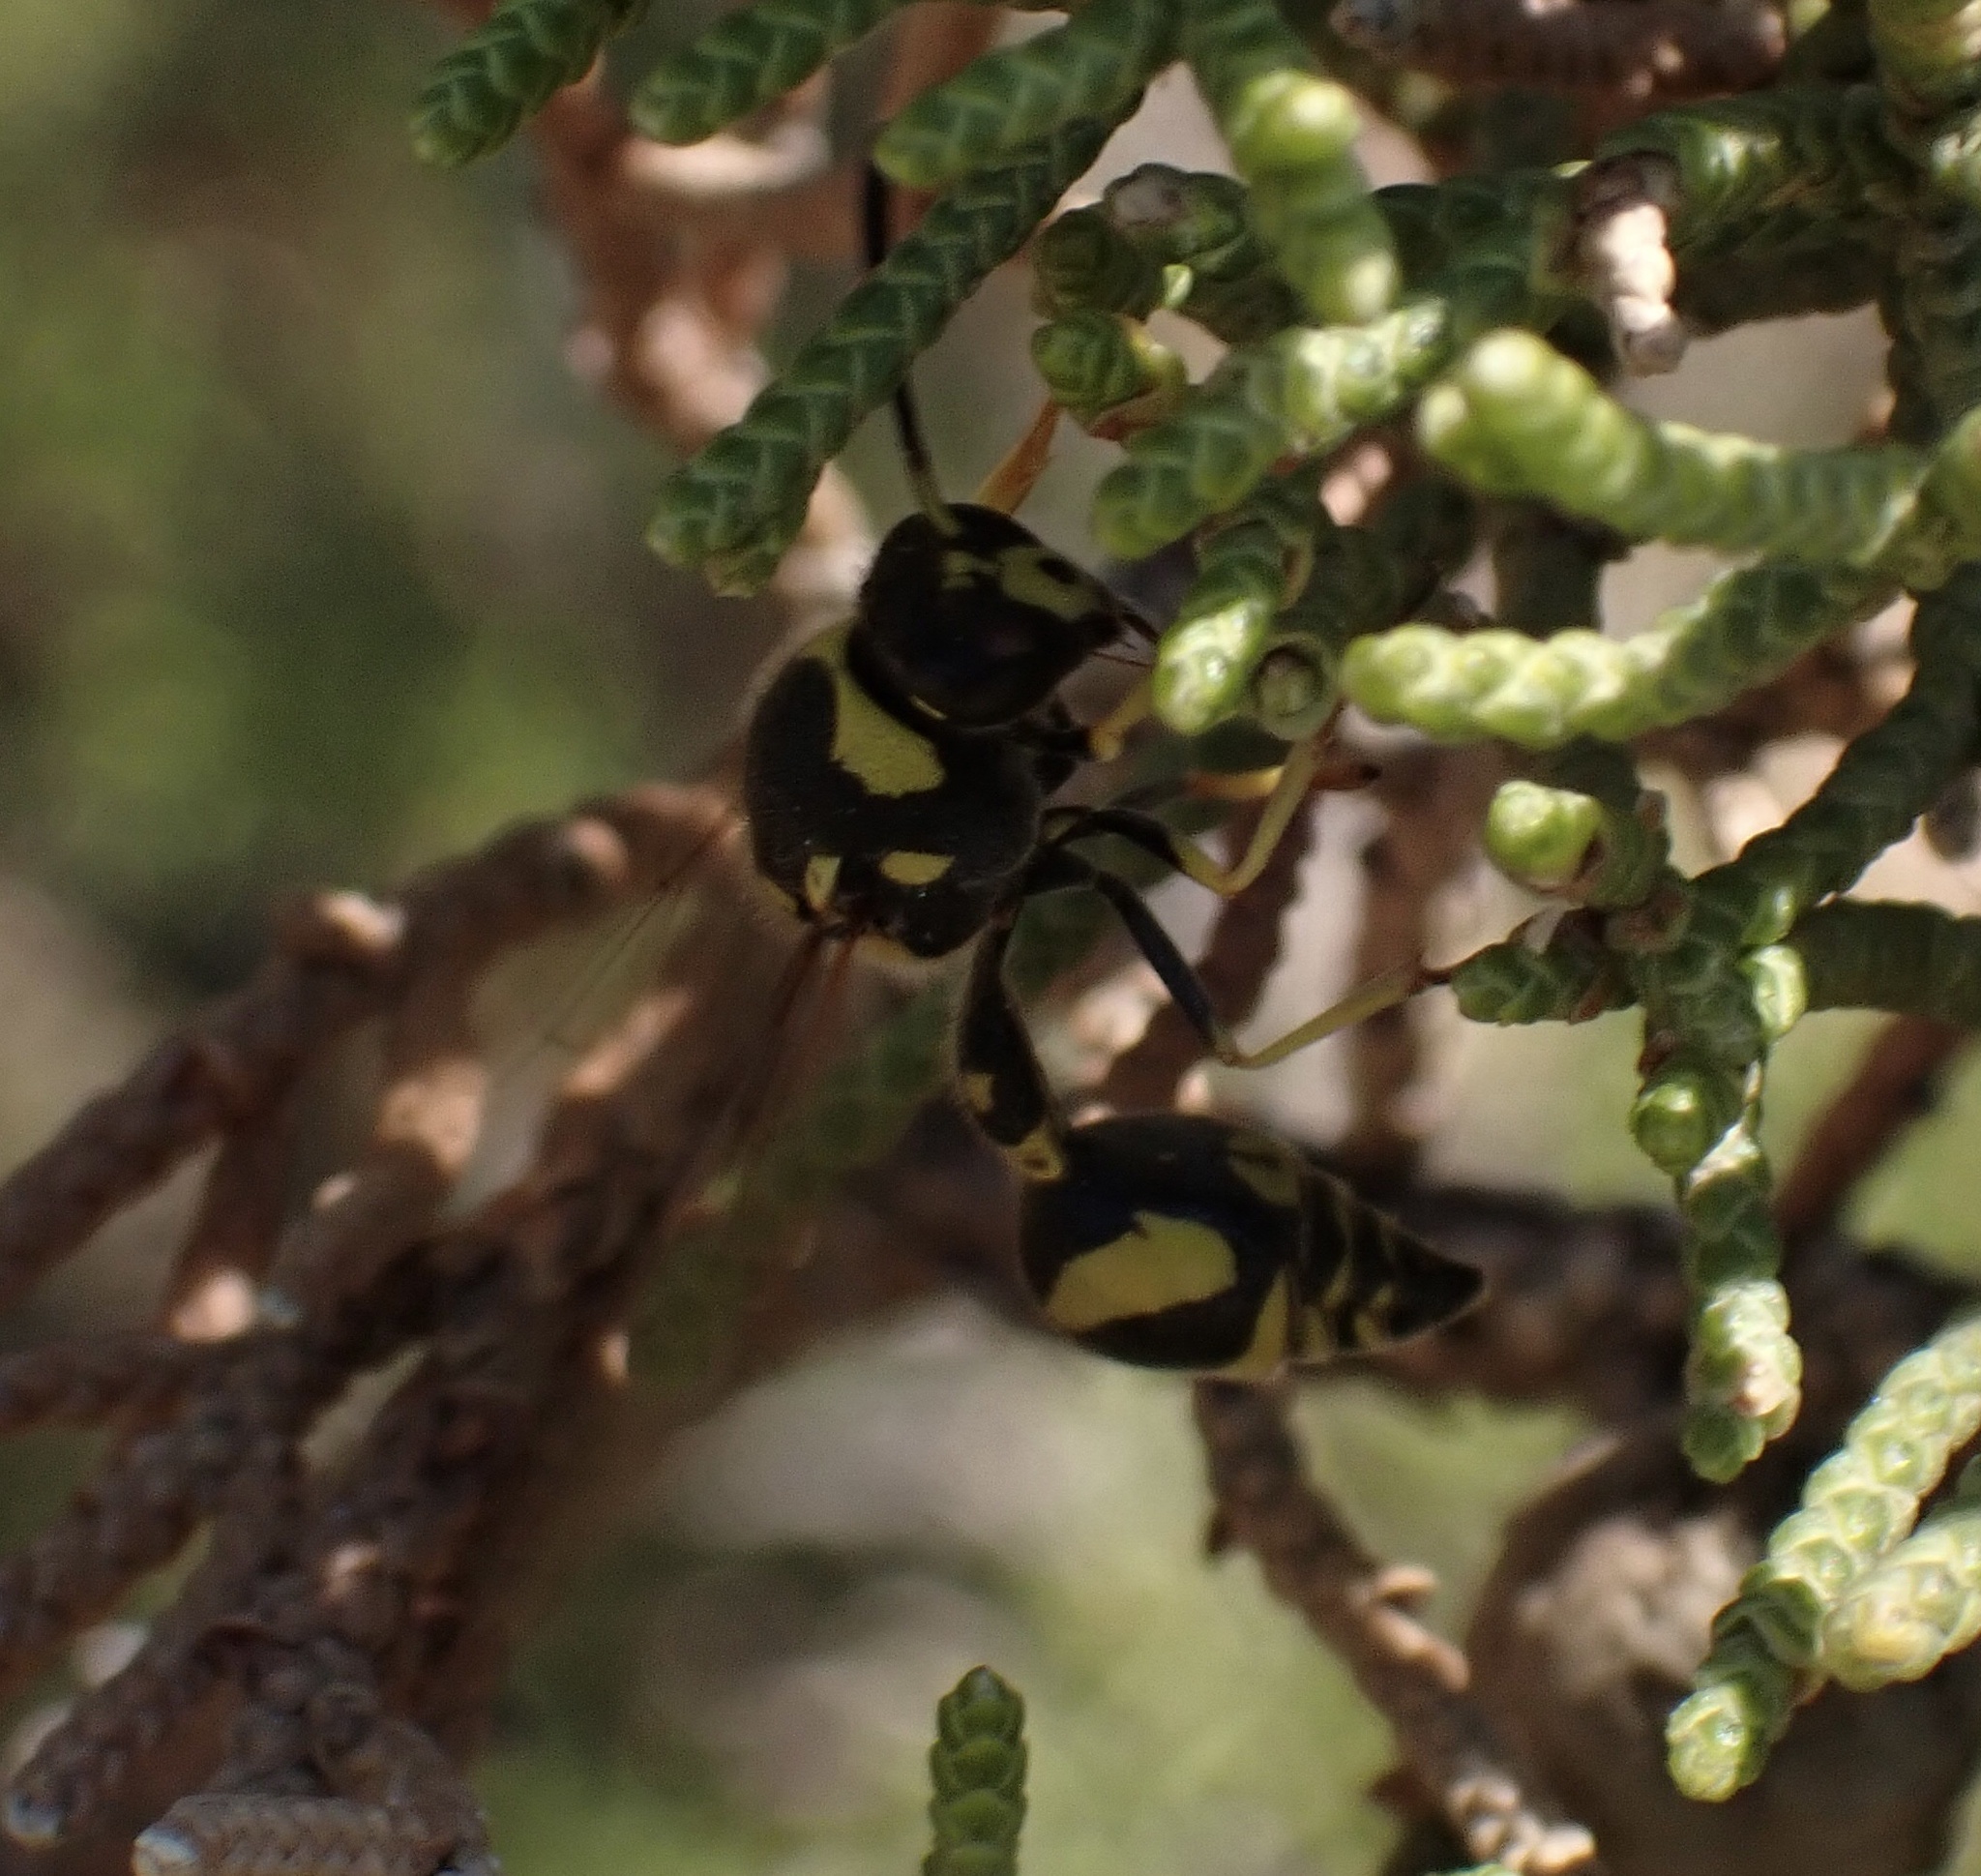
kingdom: Animalia
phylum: Arthropoda
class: Insecta
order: Hymenoptera
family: Vespidae
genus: Eumenes
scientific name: Eumenes mediterraneus
